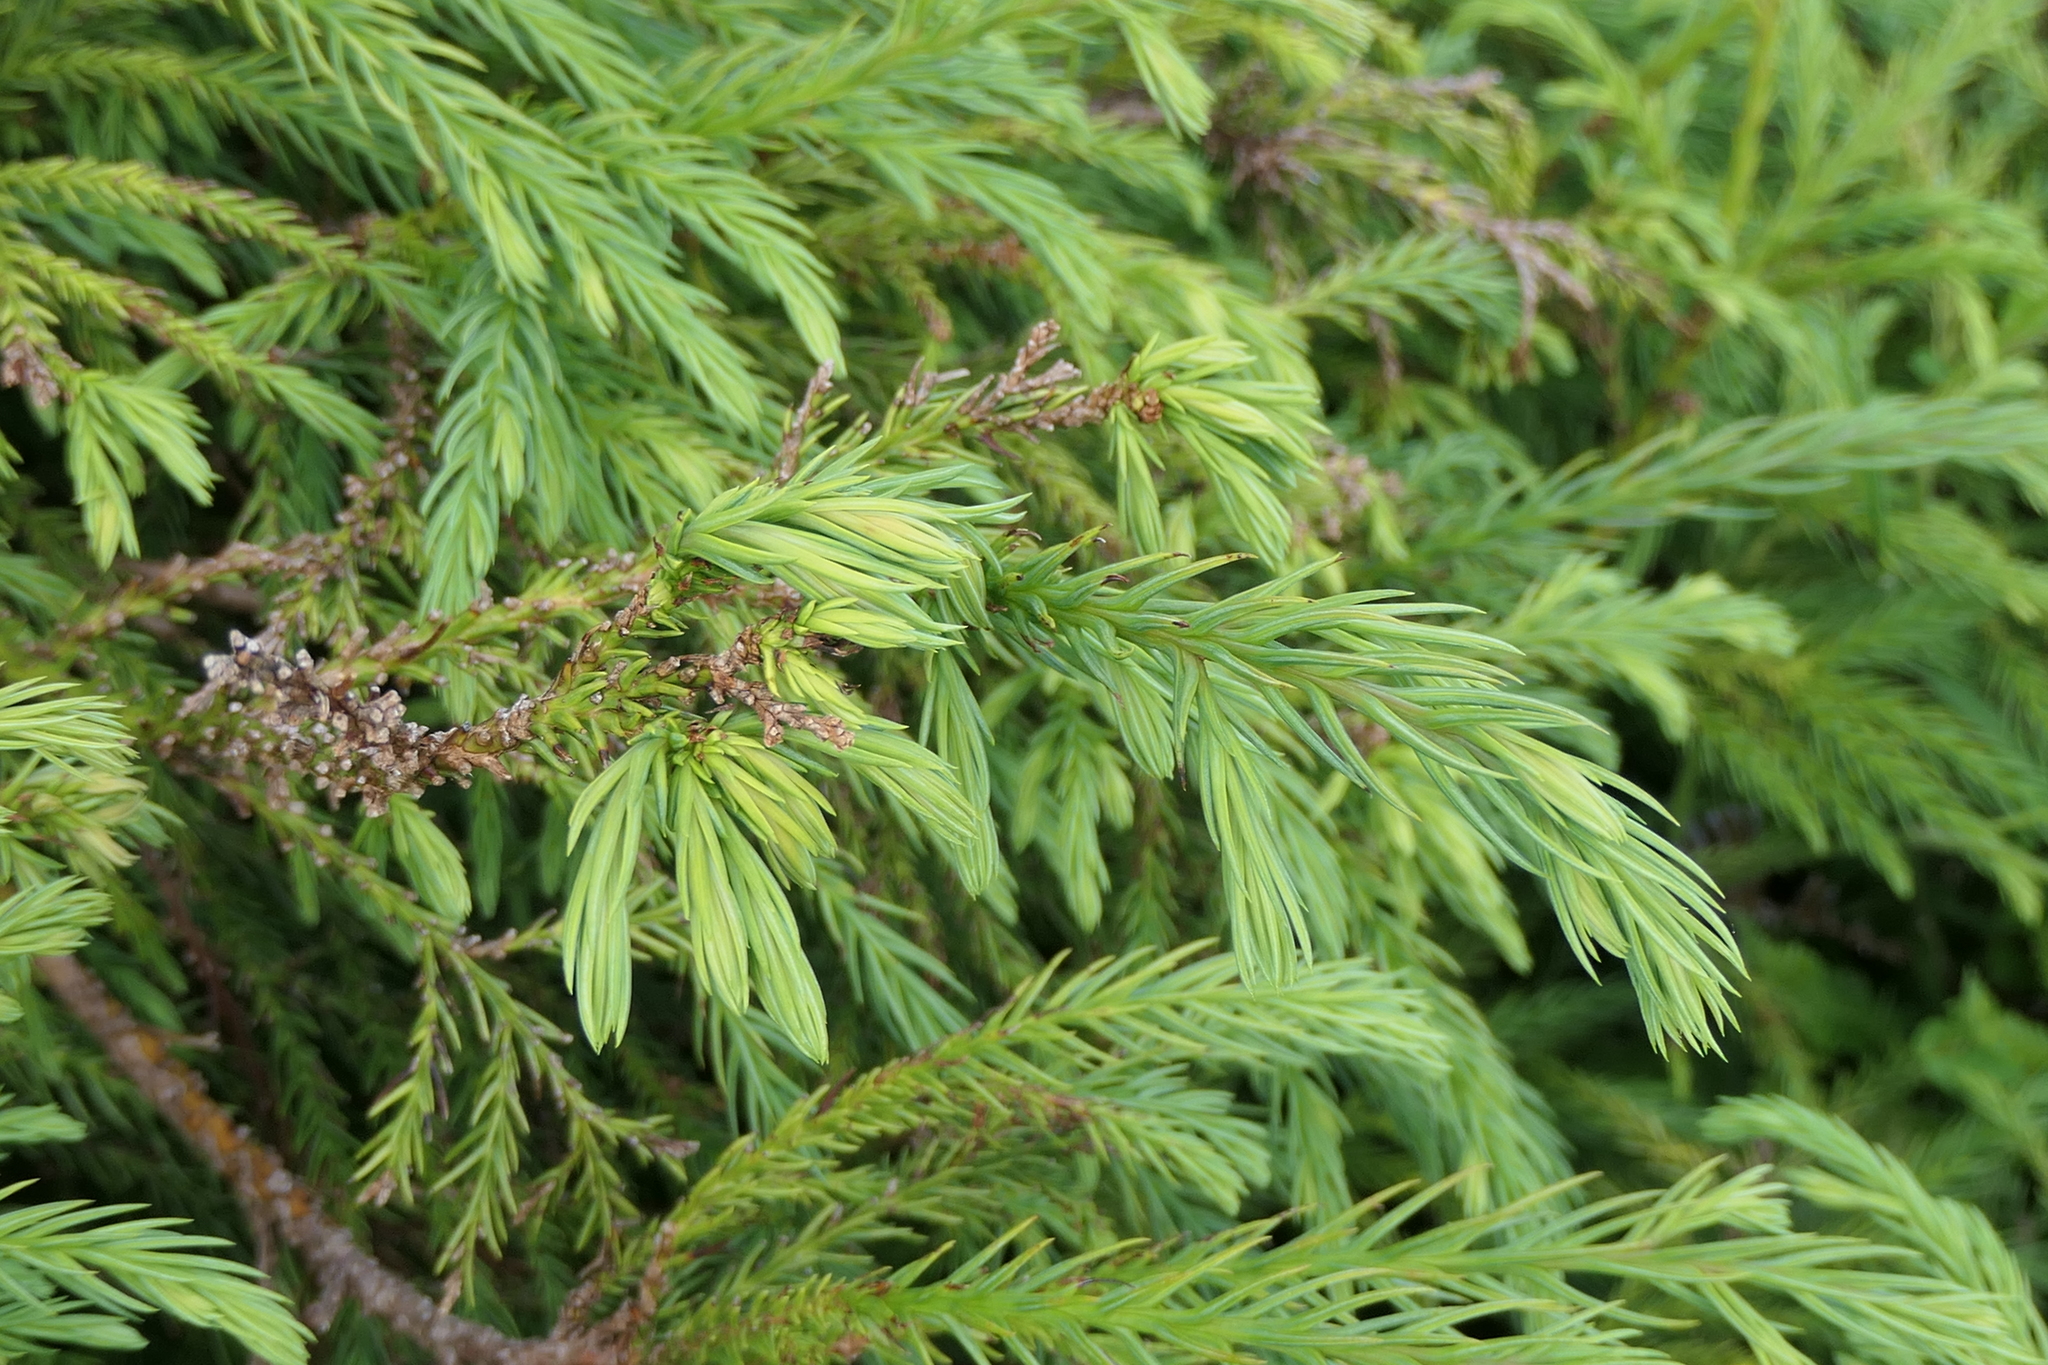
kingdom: Plantae
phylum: Tracheophyta
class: Pinopsida
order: Pinales
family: Cupressaceae
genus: Cryptomeria
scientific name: Cryptomeria japonica
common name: Japanese cedar
